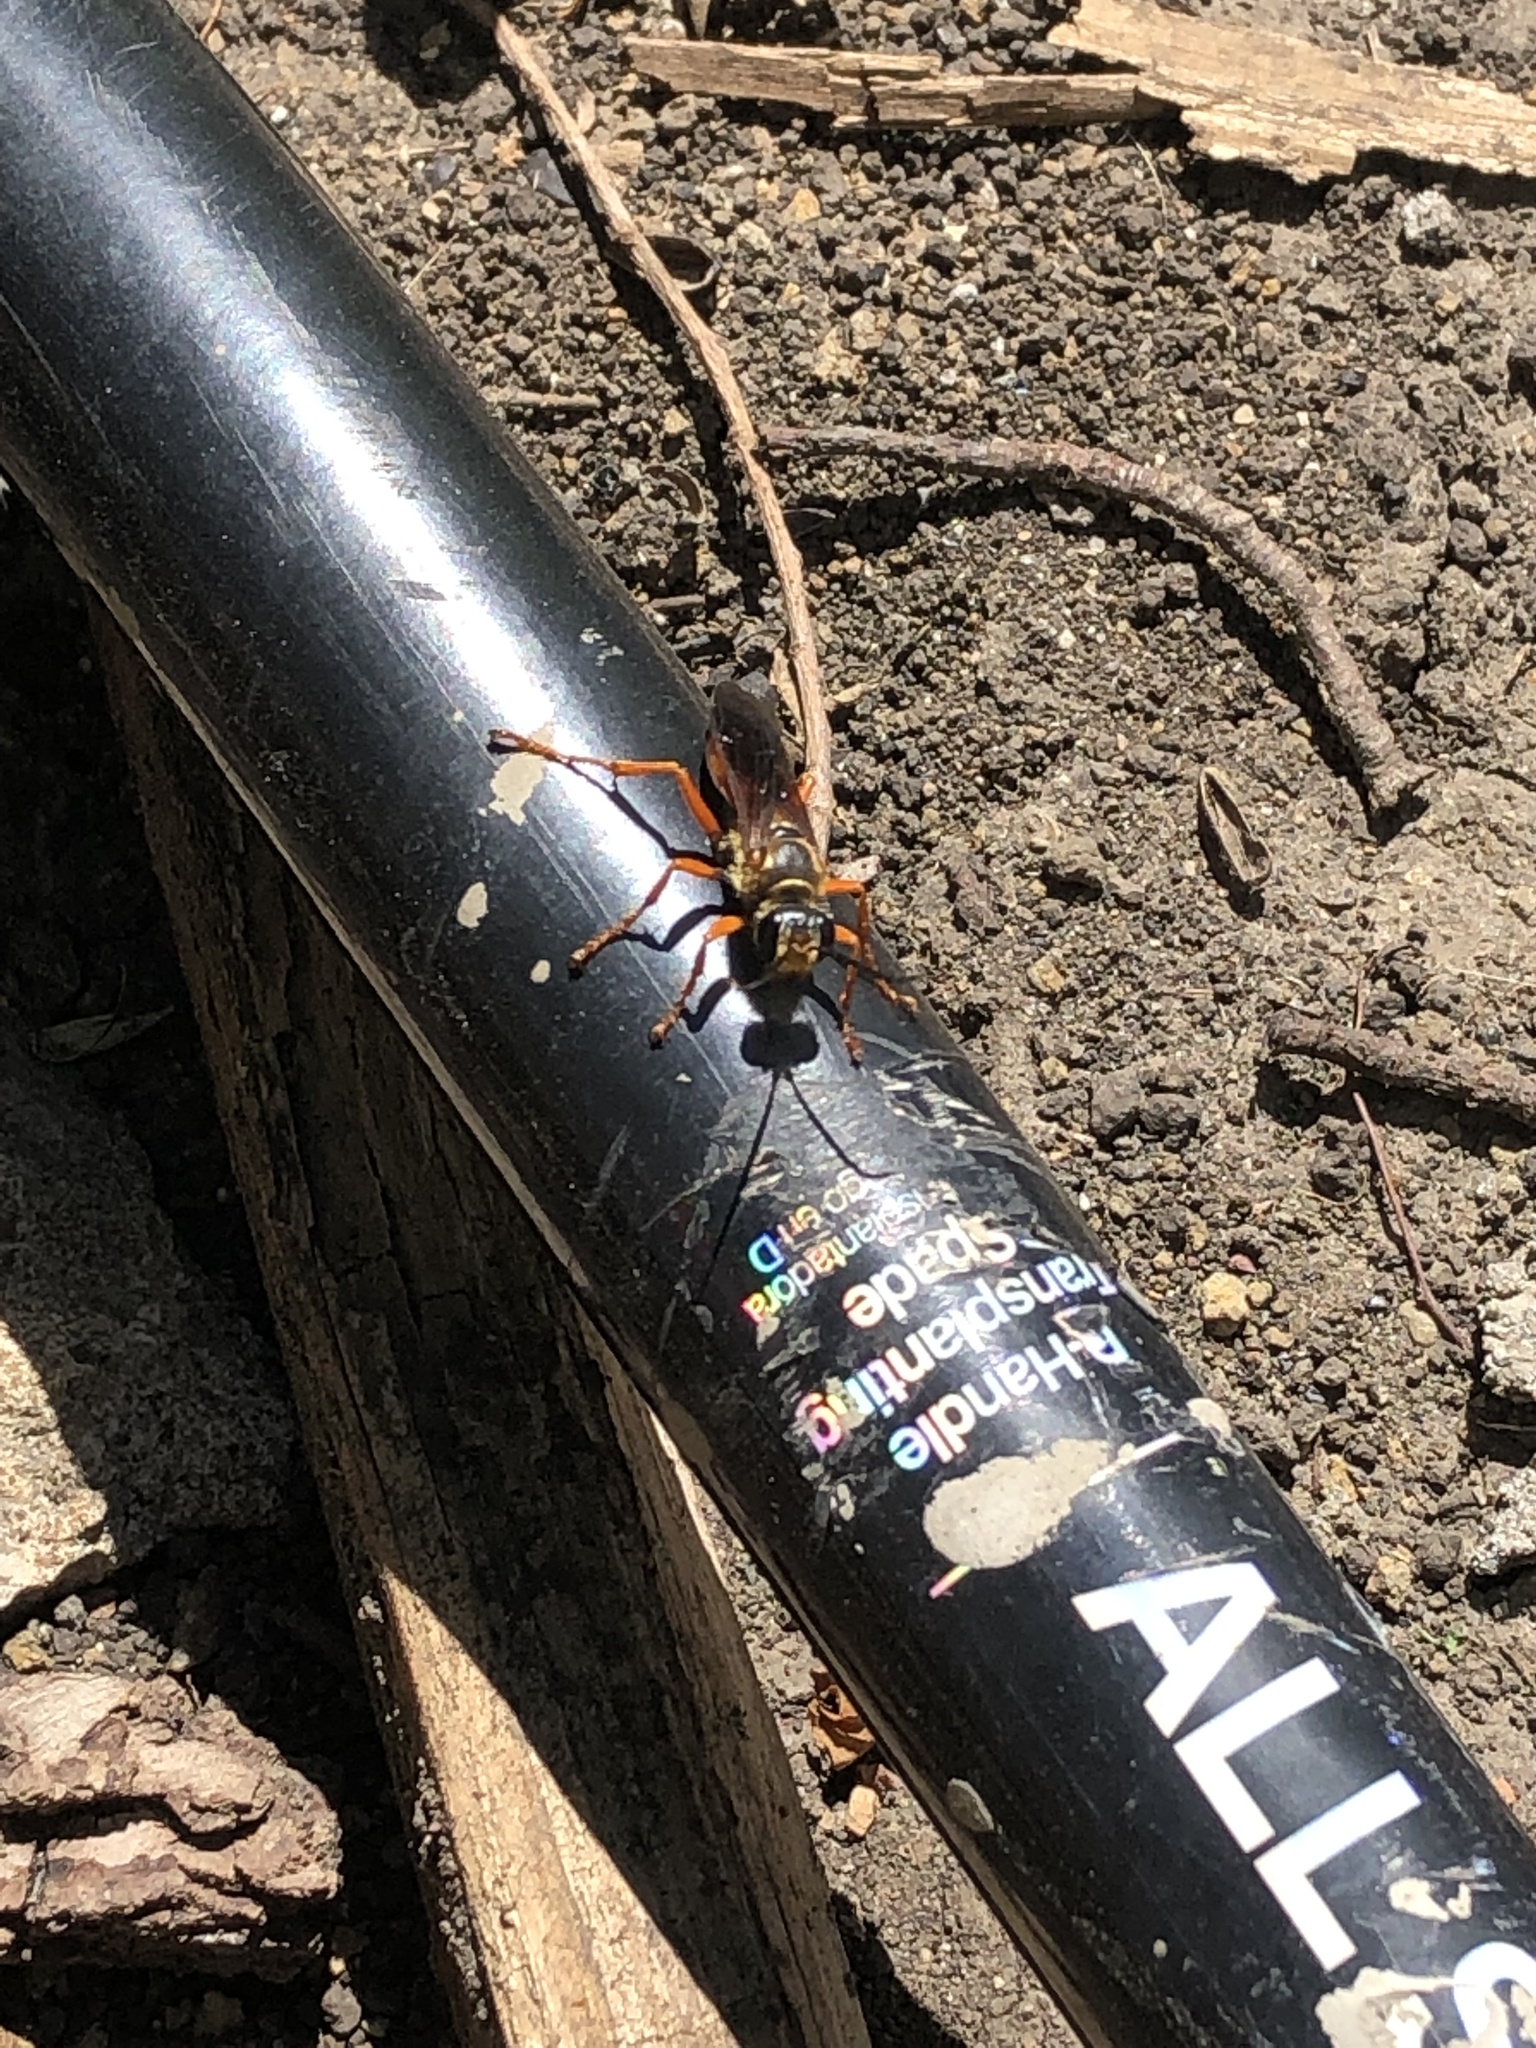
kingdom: Animalia
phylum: Arthropoda
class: Insecta
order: Hymenoptera
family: Sphecidae
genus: Sphex
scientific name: Sphex ichneumoneus
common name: Great golden digger wasp
